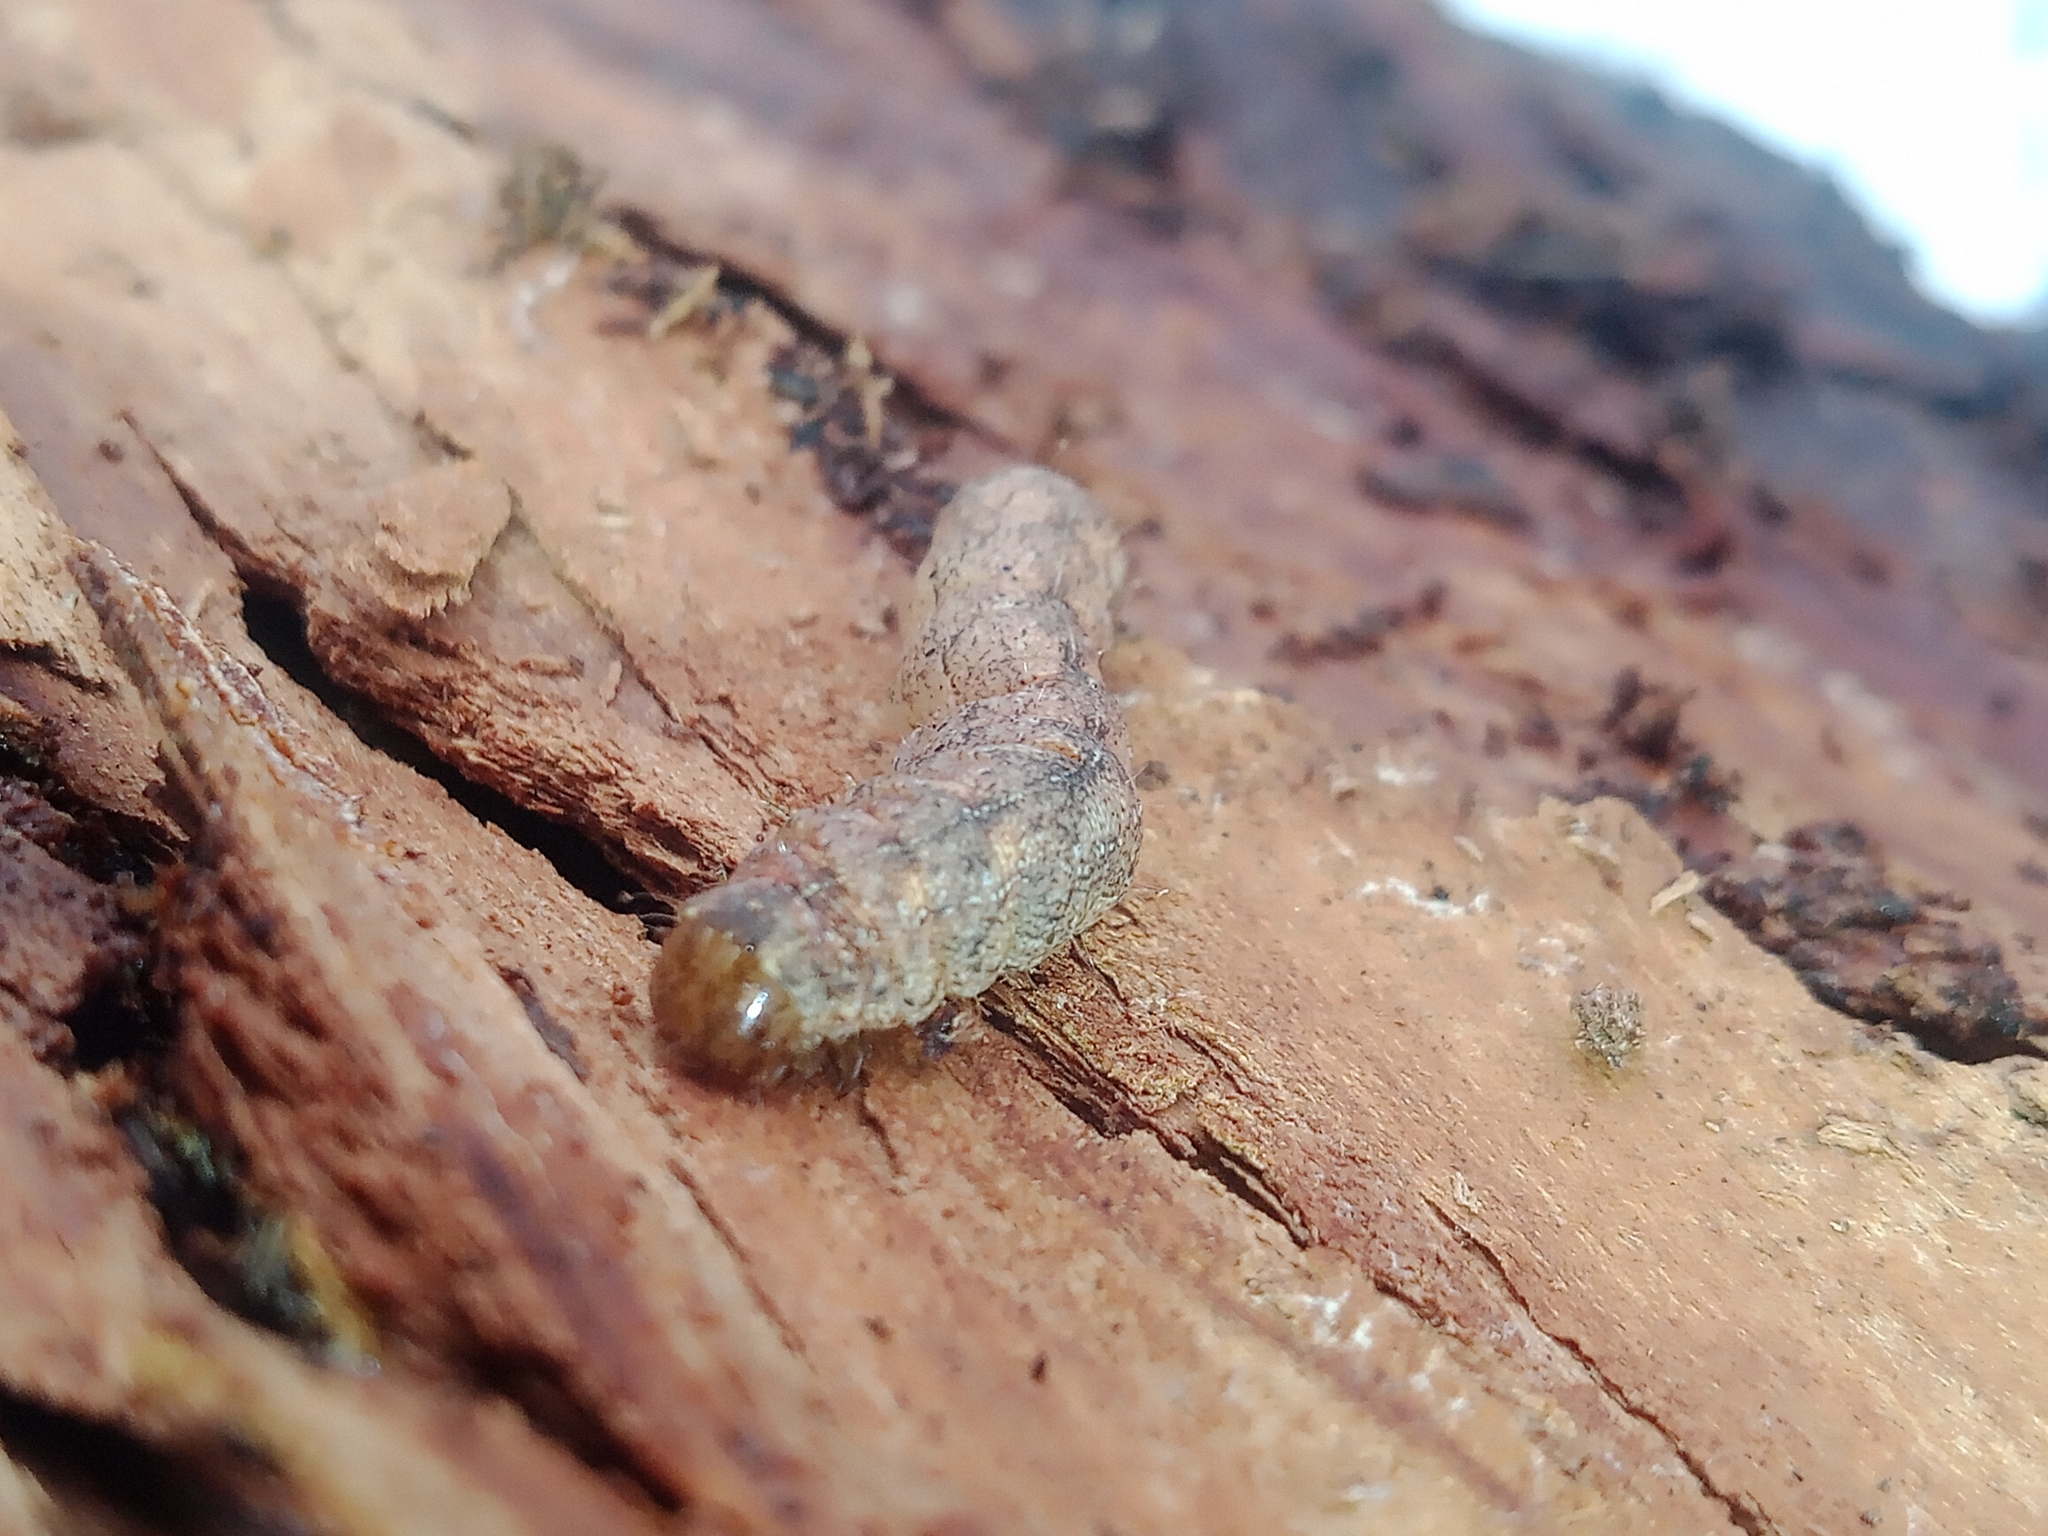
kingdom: Animalia
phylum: Arthropoda
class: Insecta
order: Lepidoptera
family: Noctuidae
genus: Polia
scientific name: Polia nebulosa
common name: Grey arches
